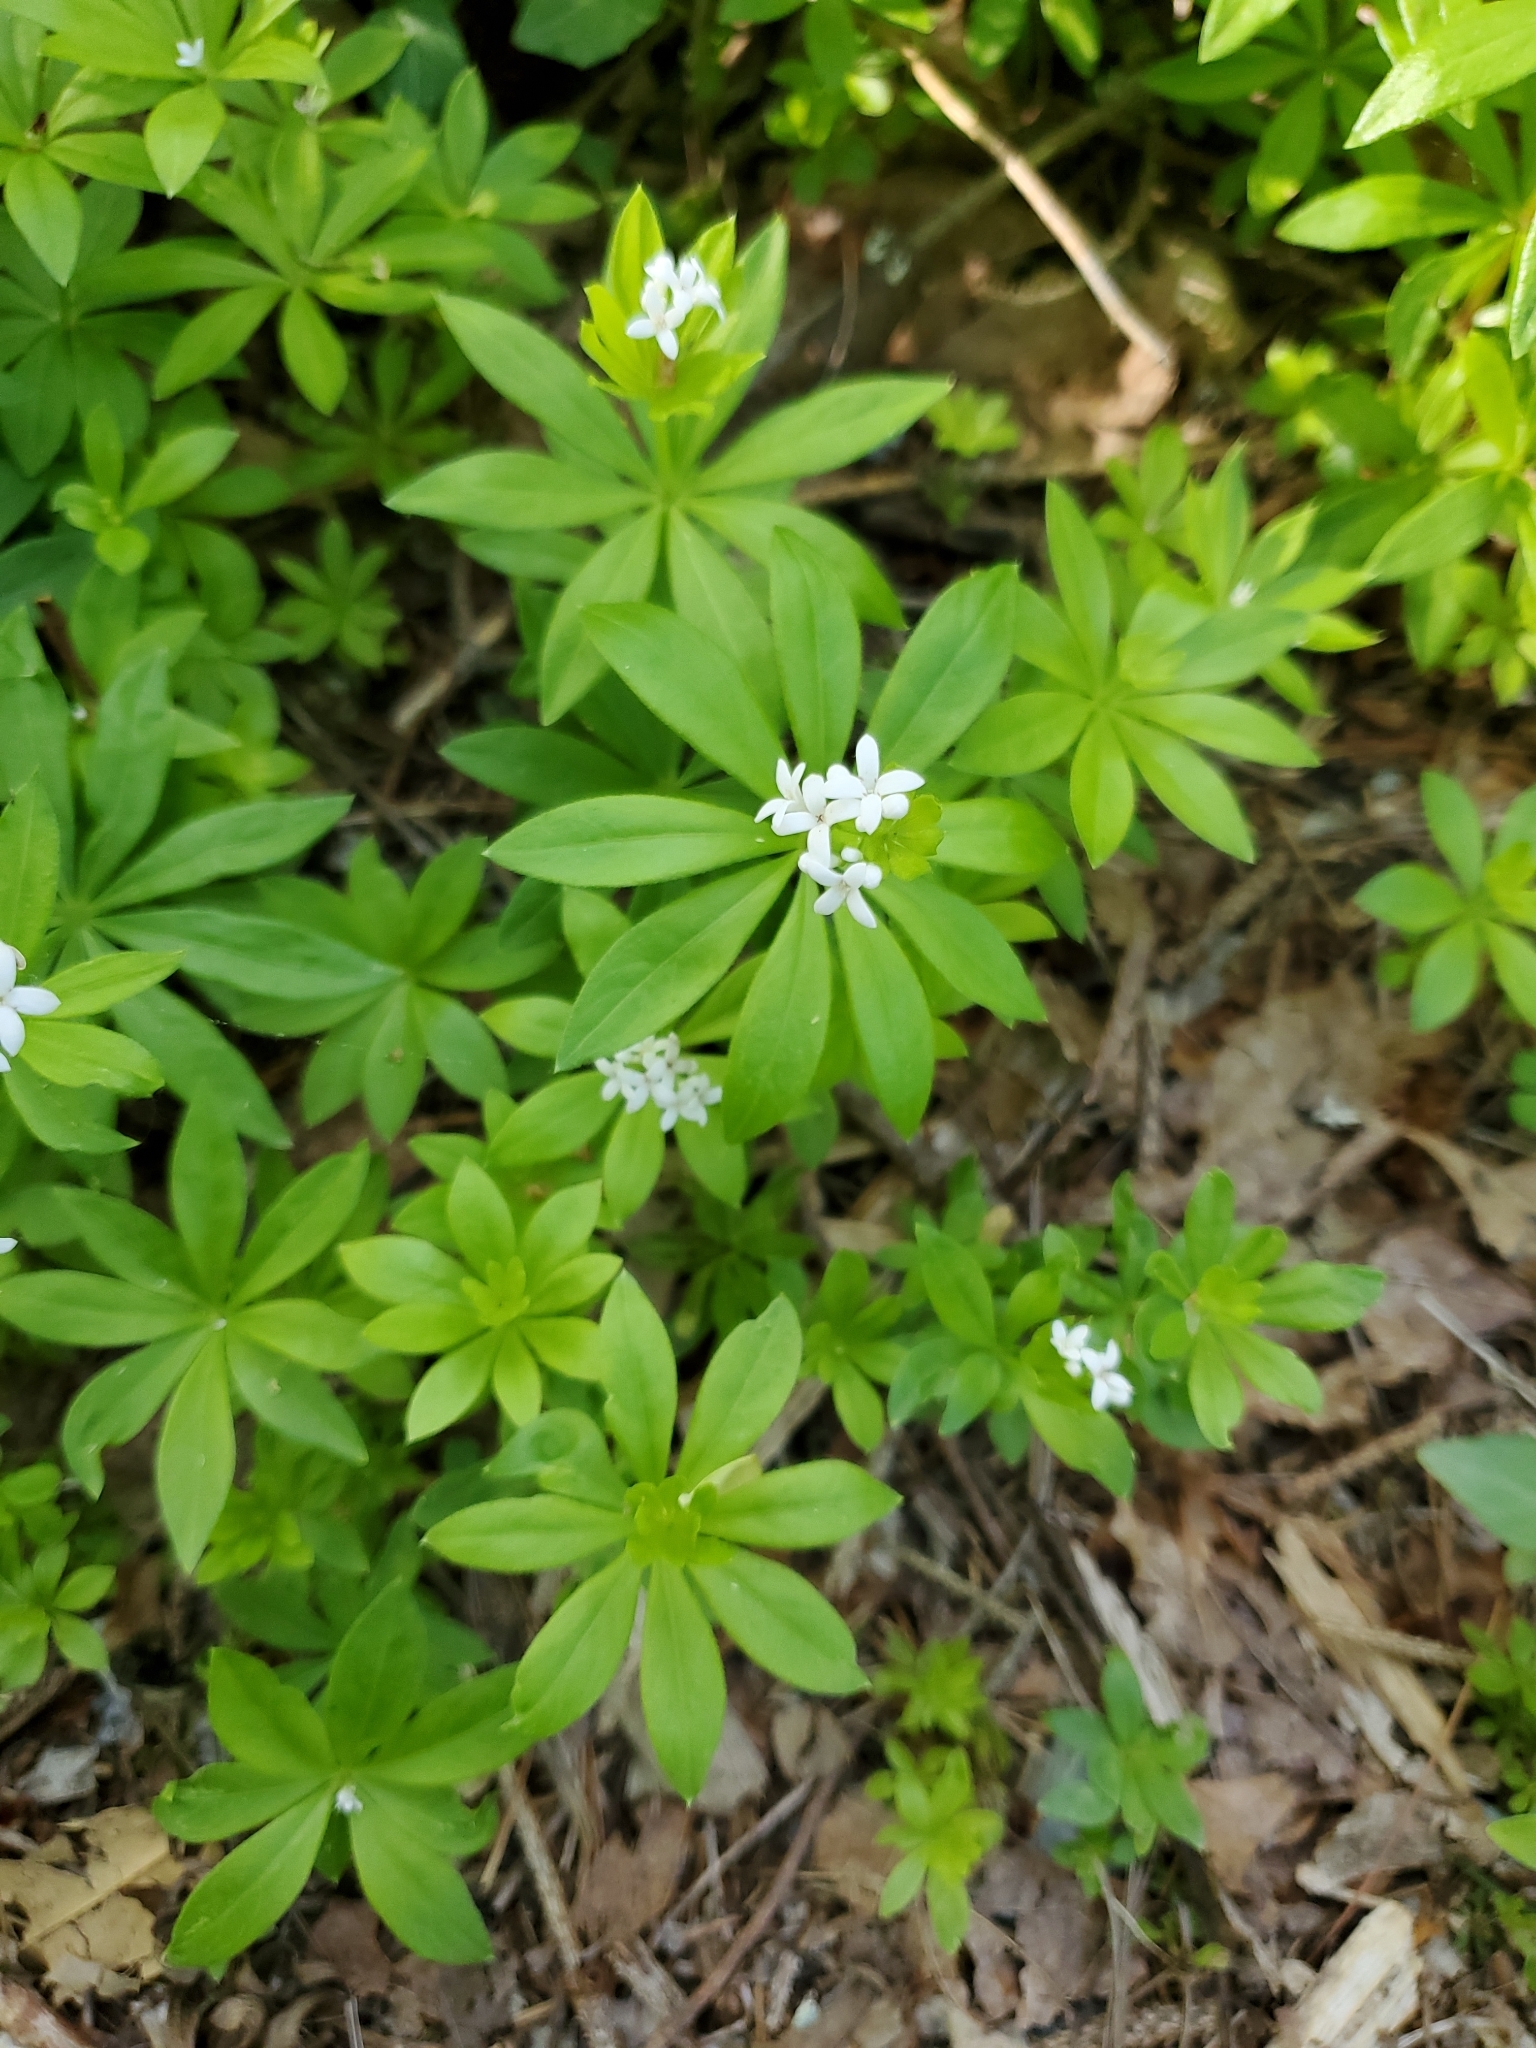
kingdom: Plantae
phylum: Tracheophyta
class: Magnoliopsida
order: Gentianales
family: Rubiaceae
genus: Galium
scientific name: Galium odoratum
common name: Sweet woodruff
